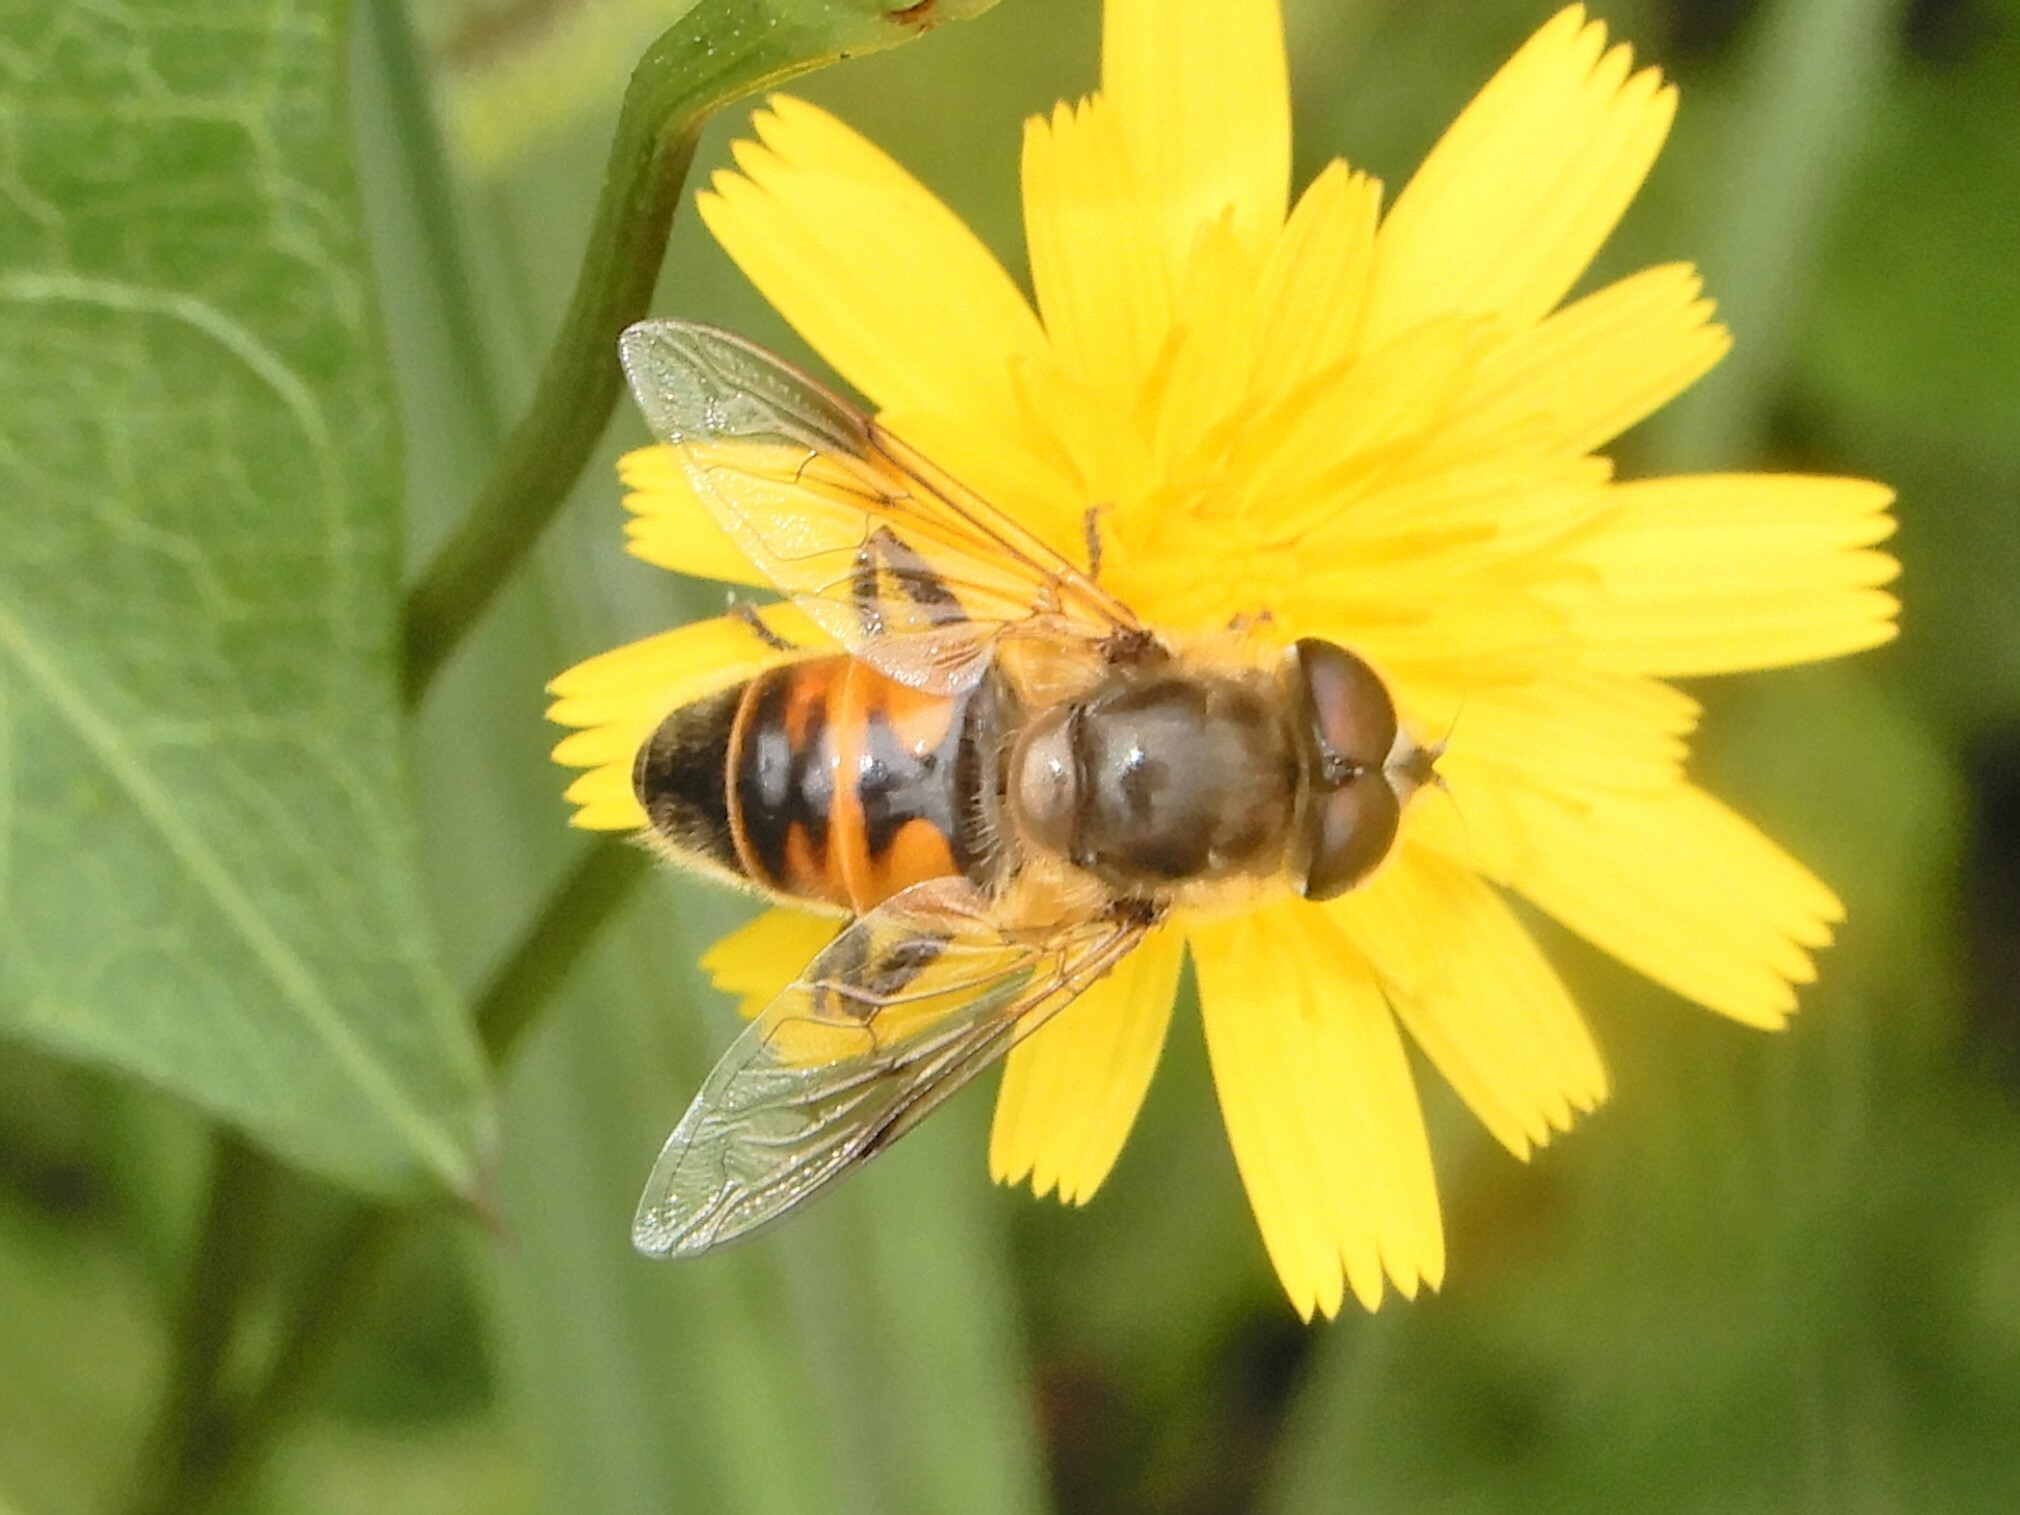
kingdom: Animalia
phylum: Arthropoda
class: Insecta
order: Diptera
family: Syrphidae
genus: Eristalis
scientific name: Eristalis tenax
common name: Drone fly
